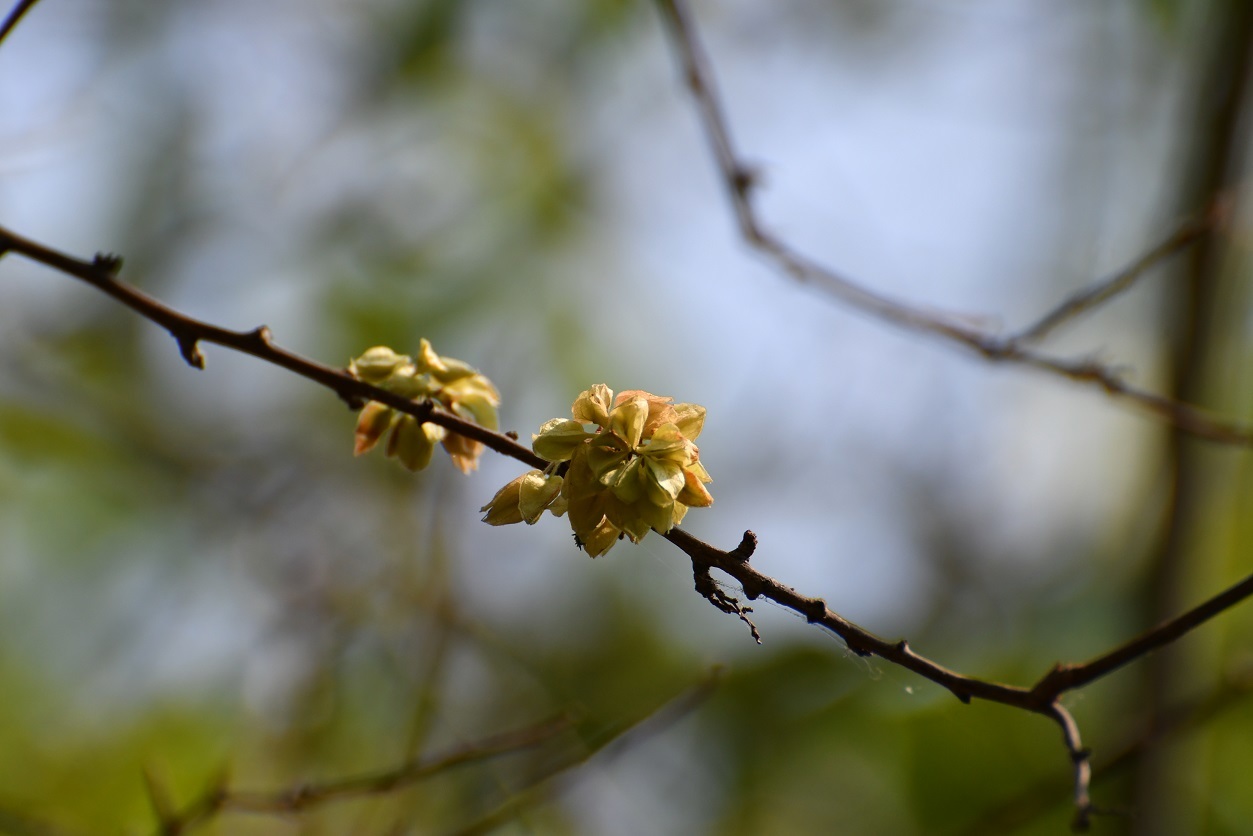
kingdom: Plantae
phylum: Tracheophyta
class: Magnoliopsida
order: Caryophyllales
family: Polygonaceae
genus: Gymnopodium
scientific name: Gymnopodium floribundum
